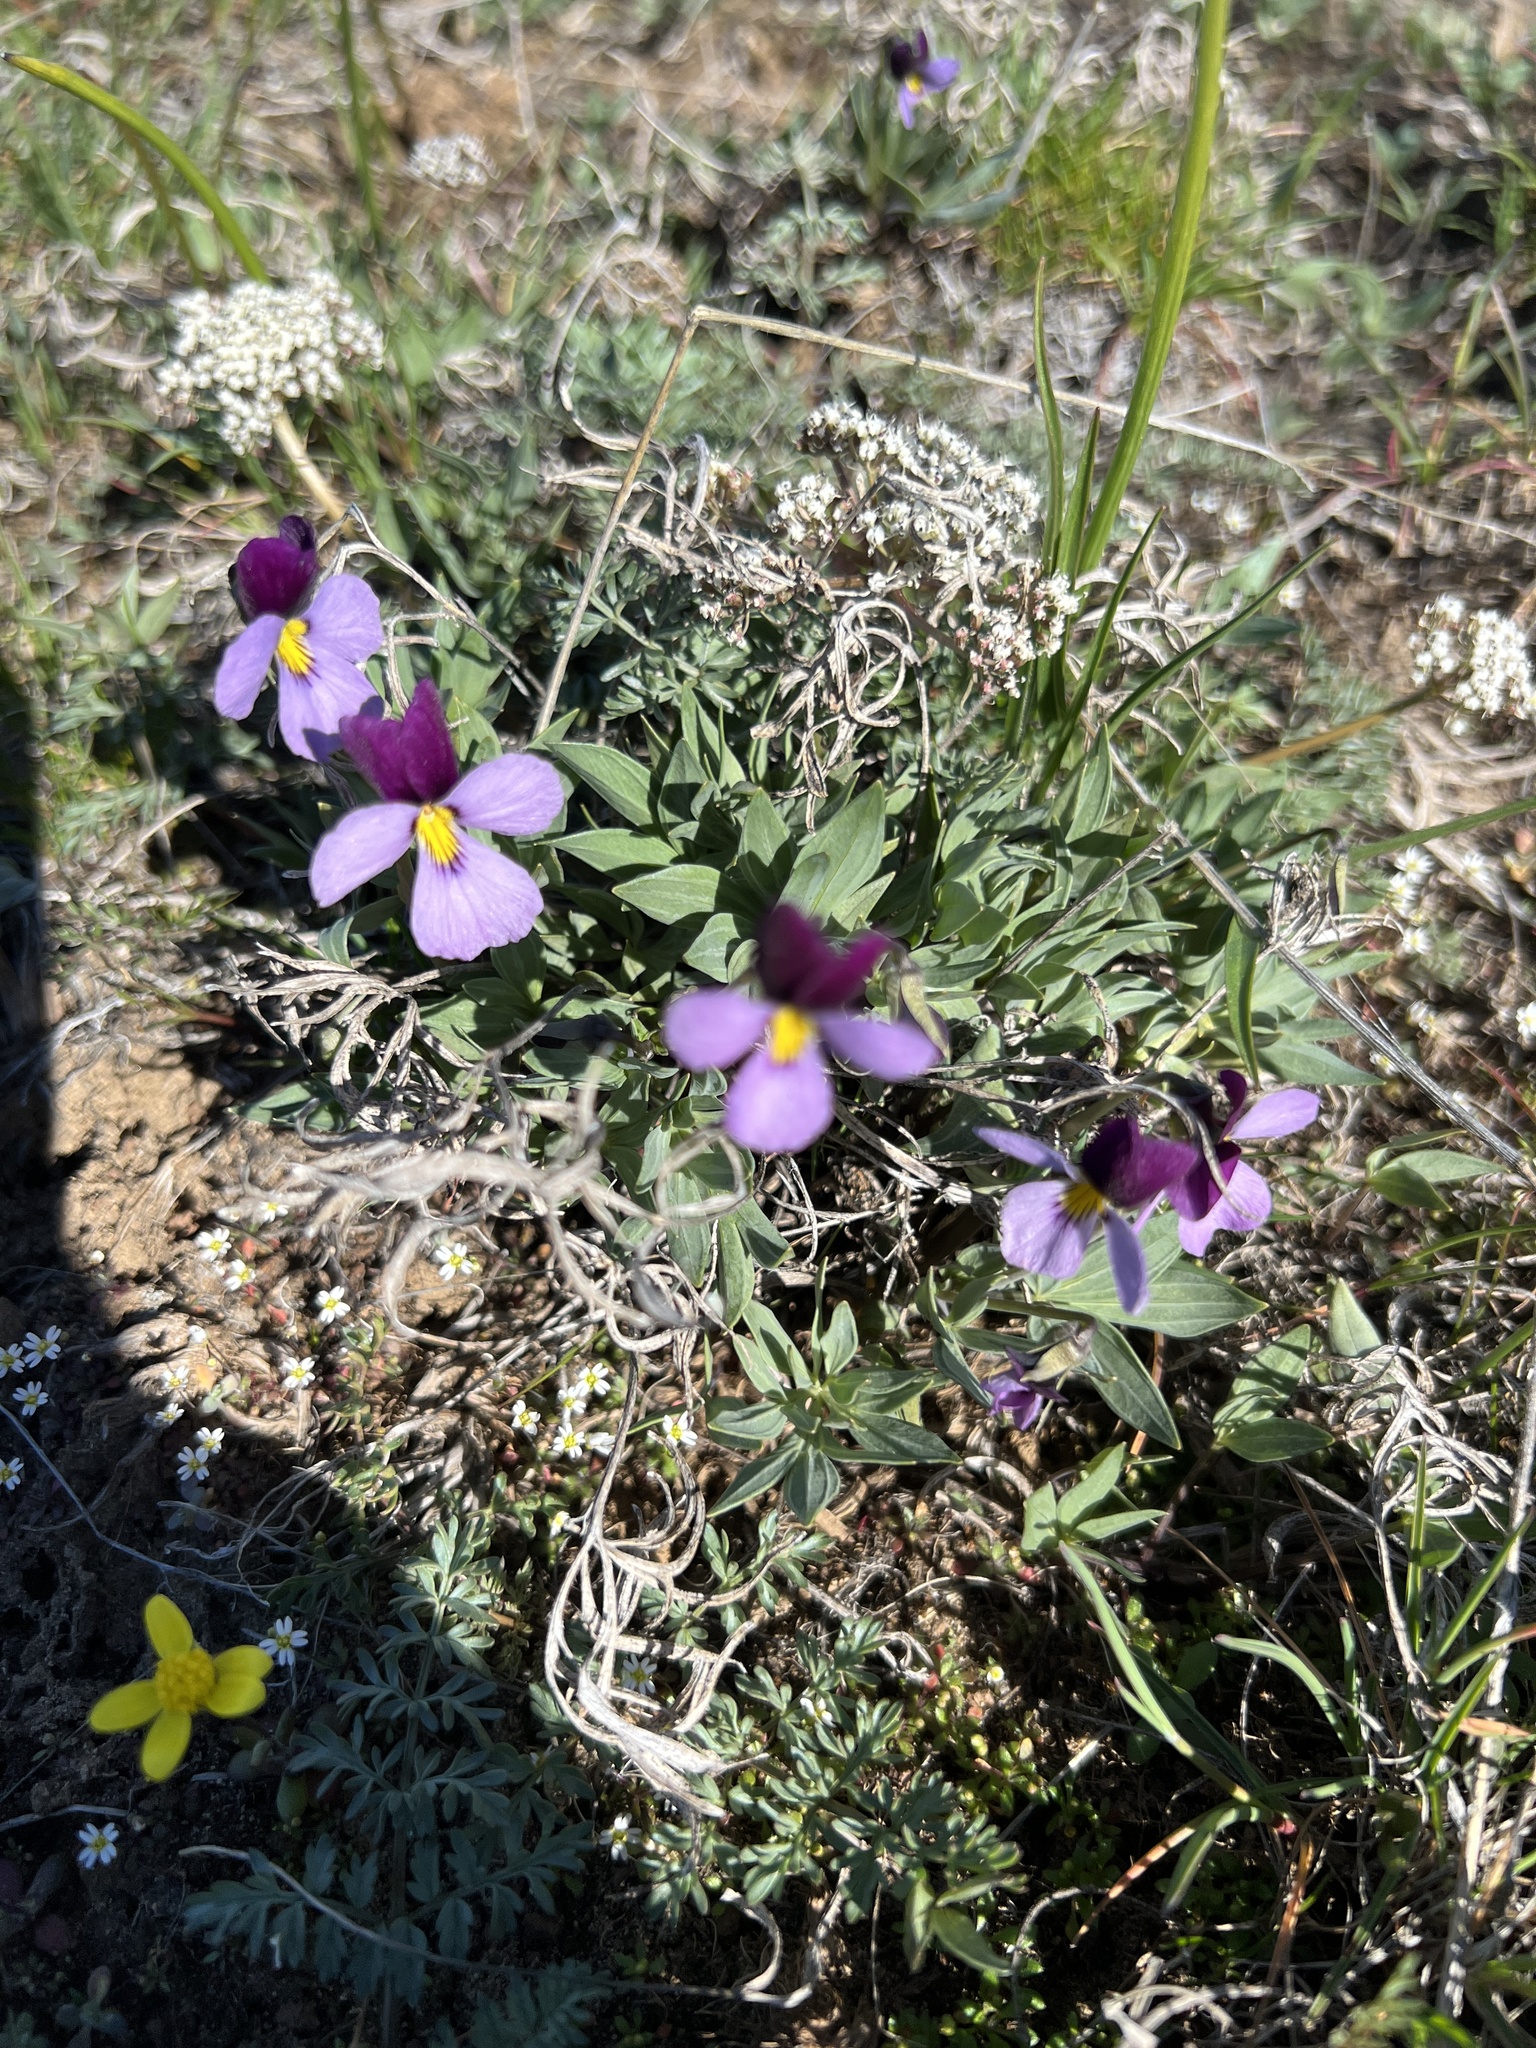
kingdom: Plantae
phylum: Tracheophyta
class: Magnoliopsida
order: Malpighiales
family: Violaceae
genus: Viola
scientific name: Viola trinervata
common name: Sagebrush violet
